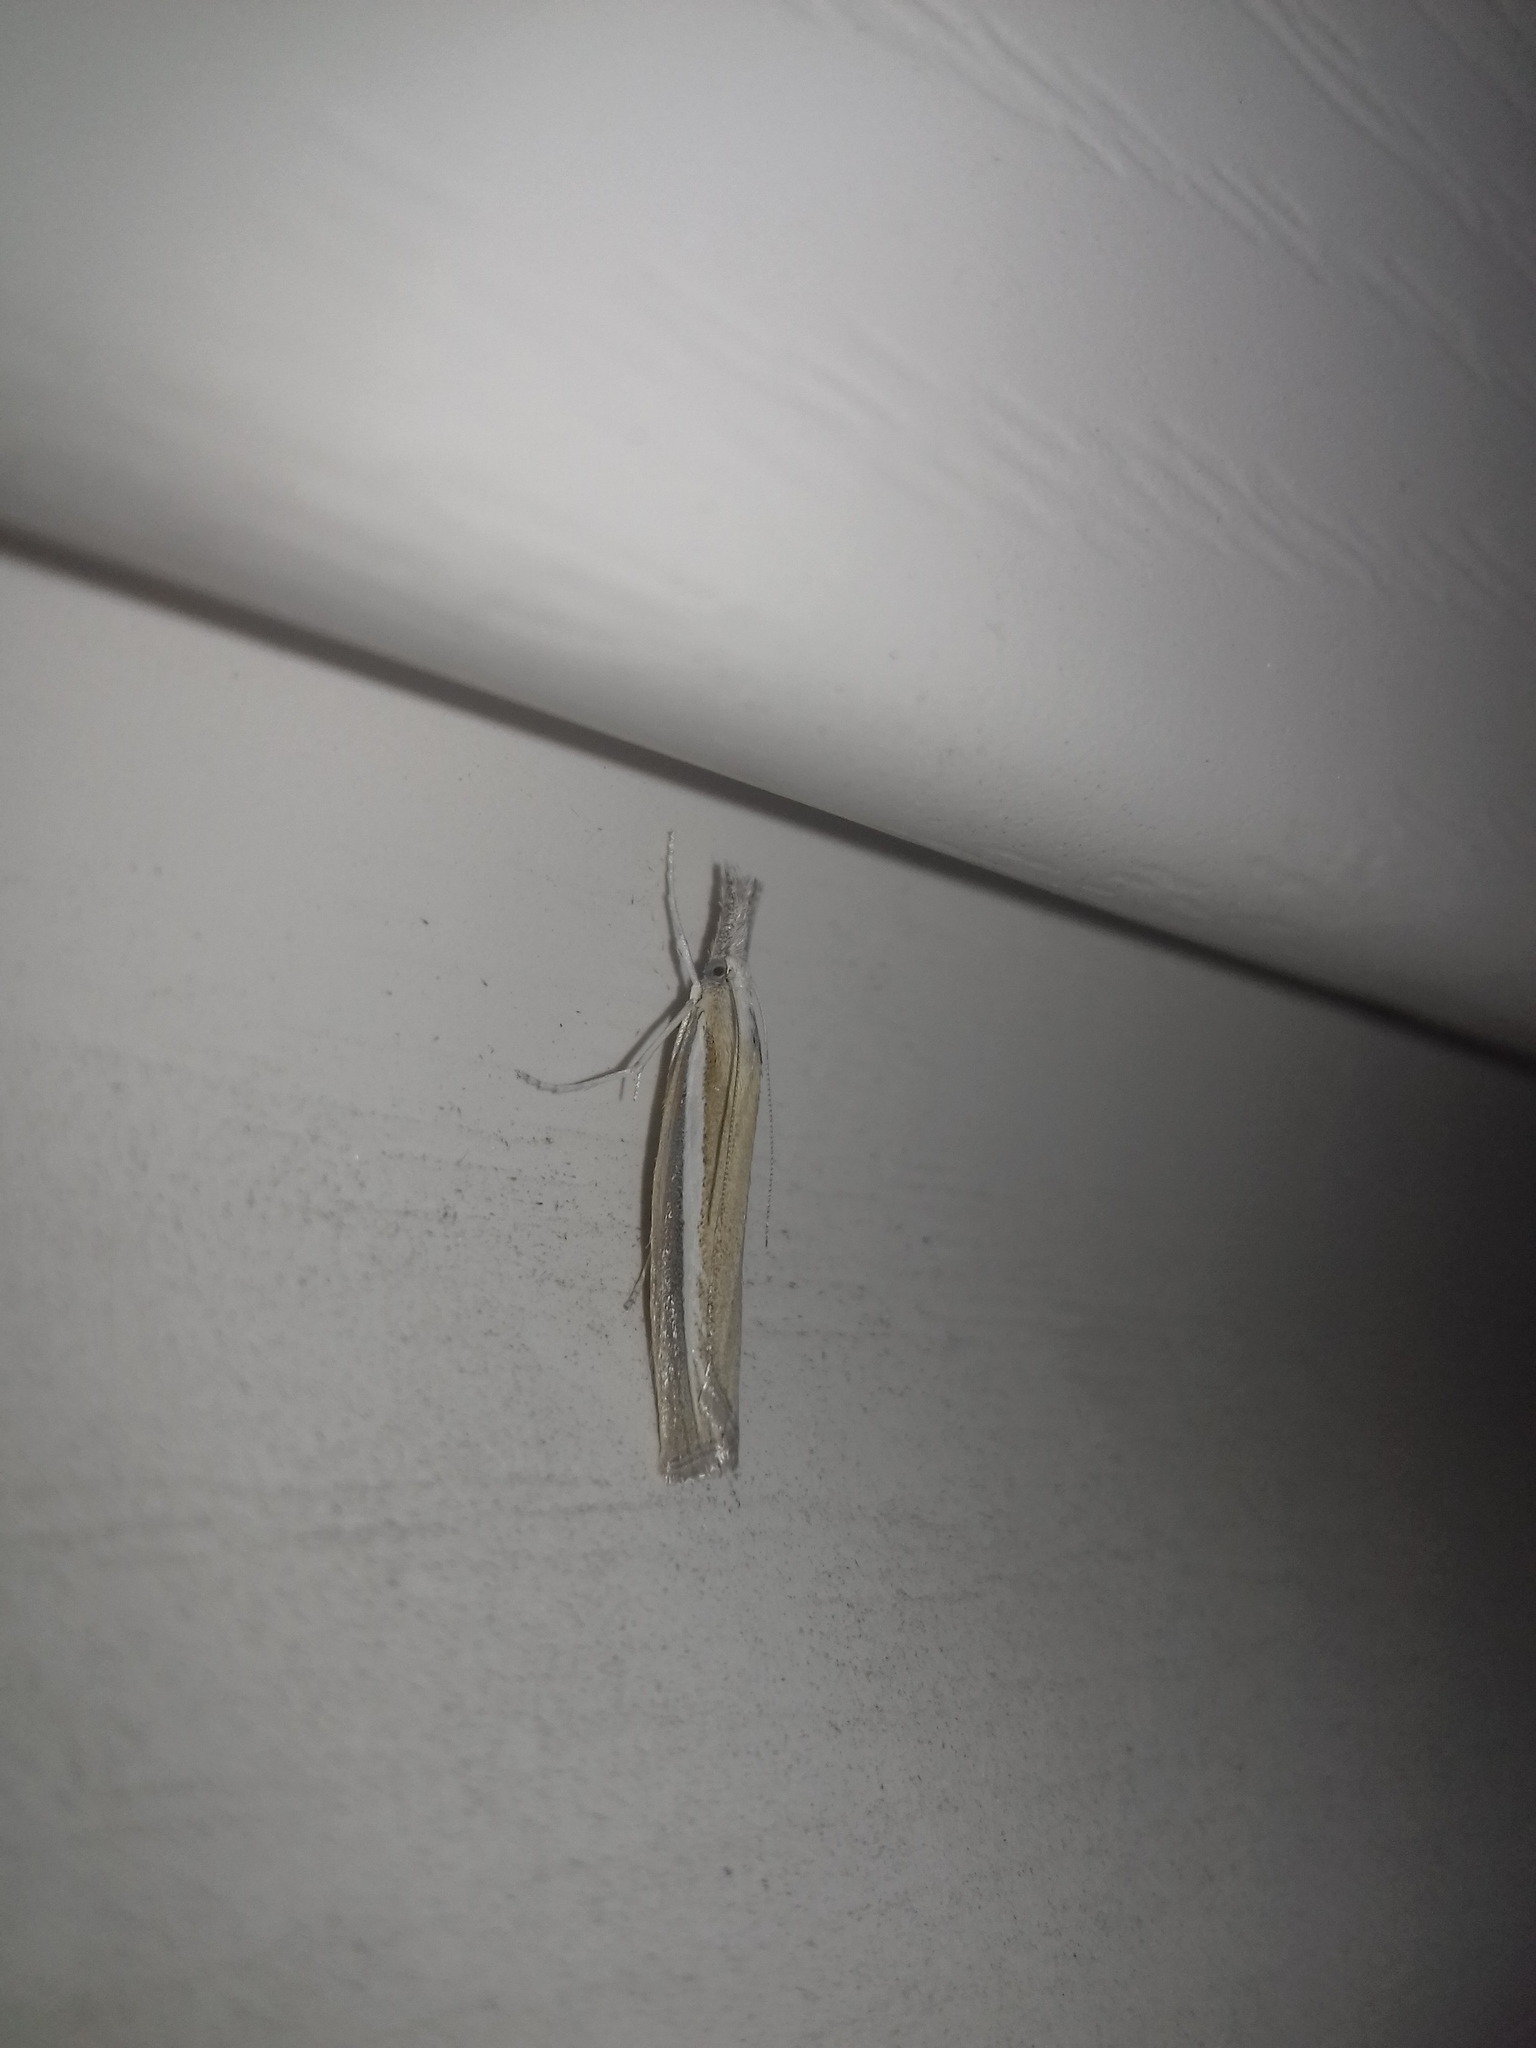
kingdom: Animalia
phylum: Arthropoda
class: Insecta
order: Lepidoptera
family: Crambidae
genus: Agriphila
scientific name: Agriphila tristellus
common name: Common grass-veneer
